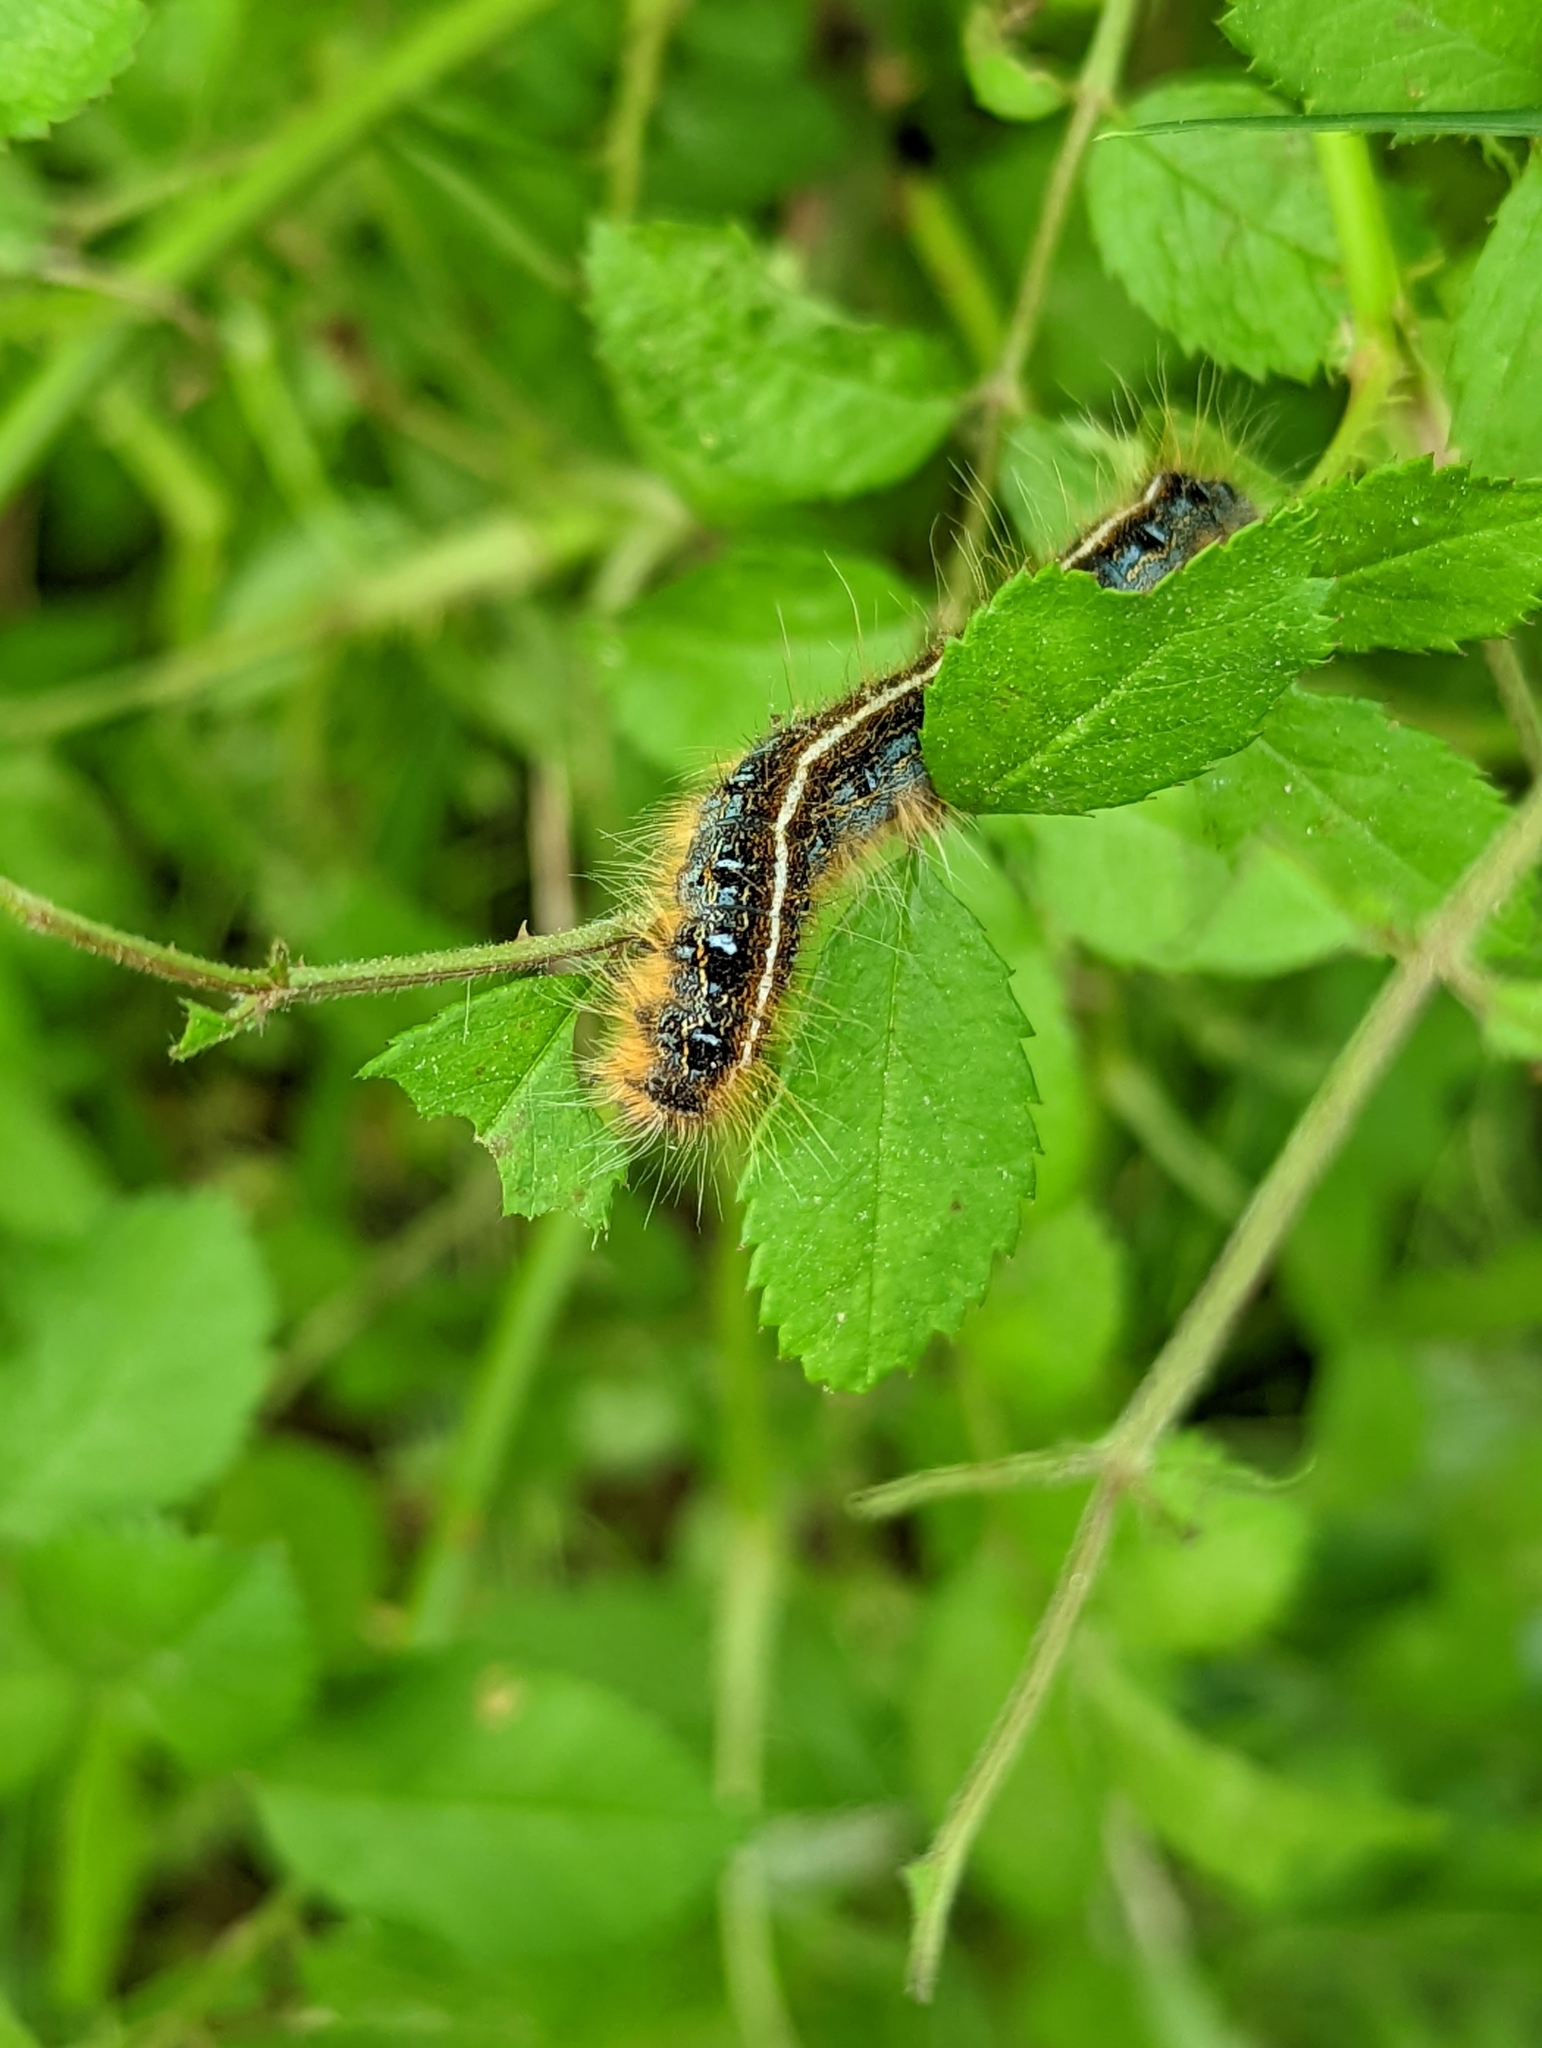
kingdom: Animalia
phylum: Arthropoda
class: Insecta
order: Lepidoptera
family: Lasiocampidae
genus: Malacosoma
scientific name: Malacosoma americana
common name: Eastern tent caterpillar moth
